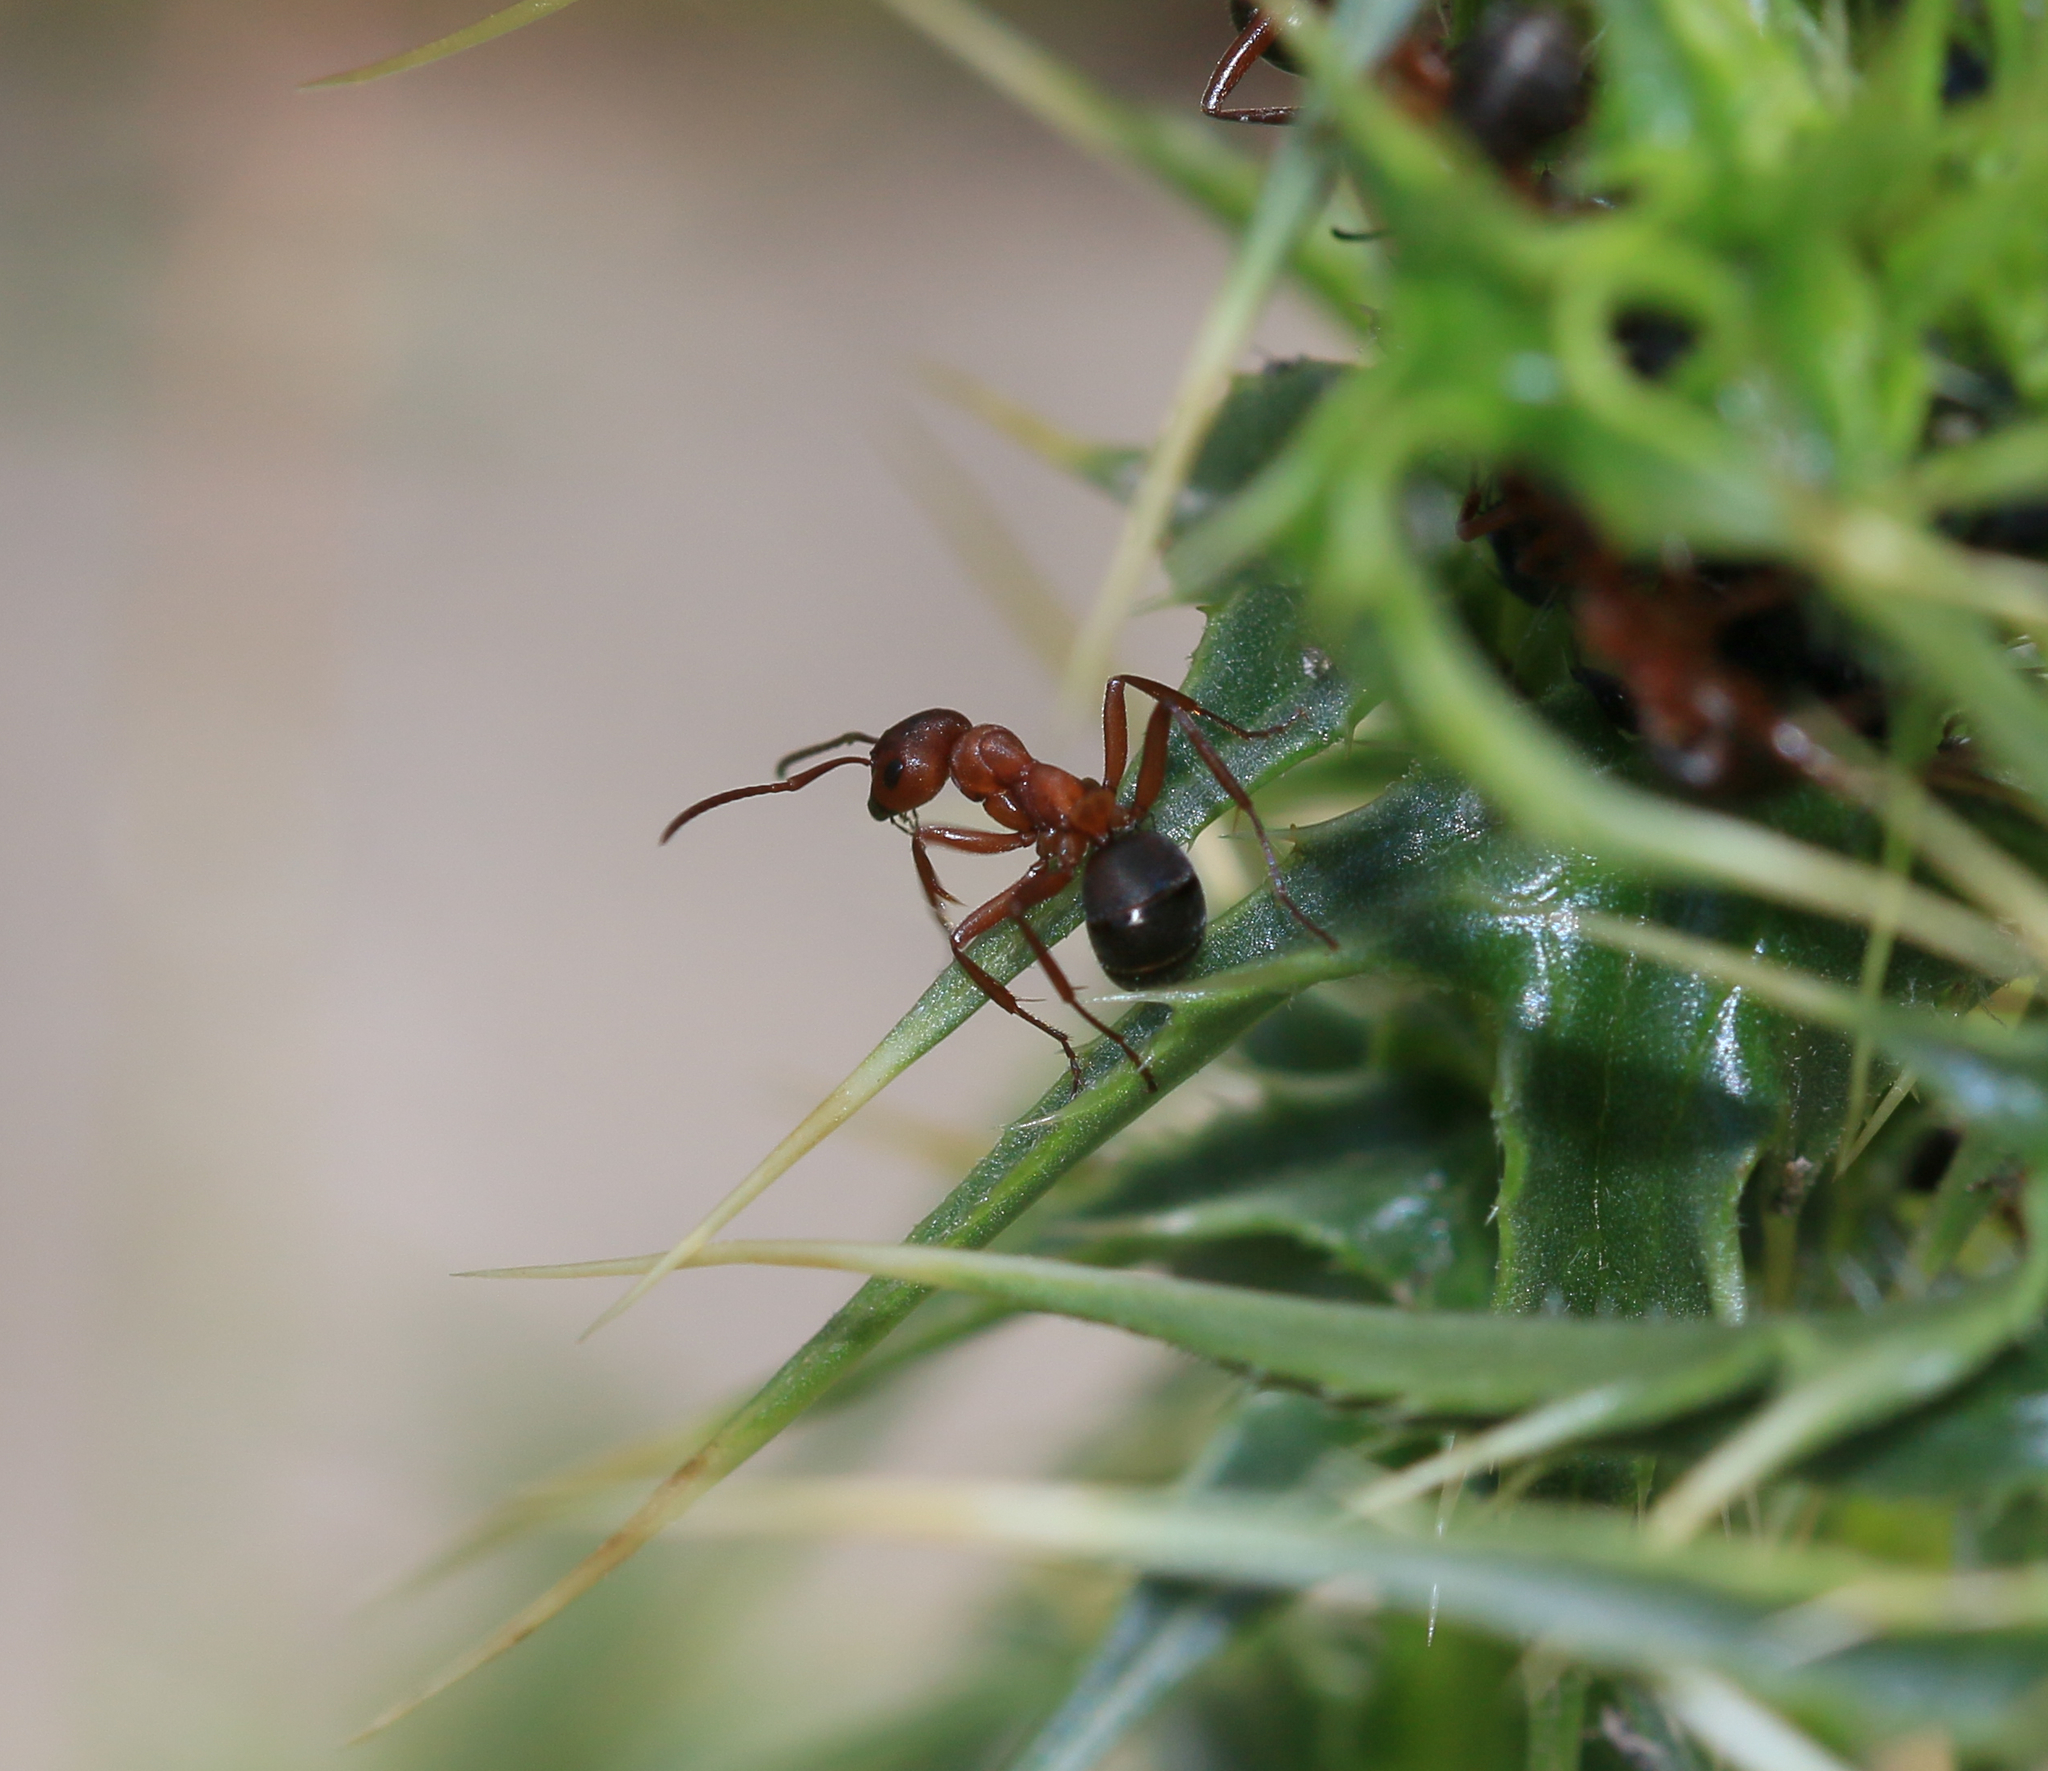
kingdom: Animalia
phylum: Arthropoda
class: Insecta
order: Hymenoptera
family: Formicidae
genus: Formica
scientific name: Formica sanguinea
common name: Blood-red ant
